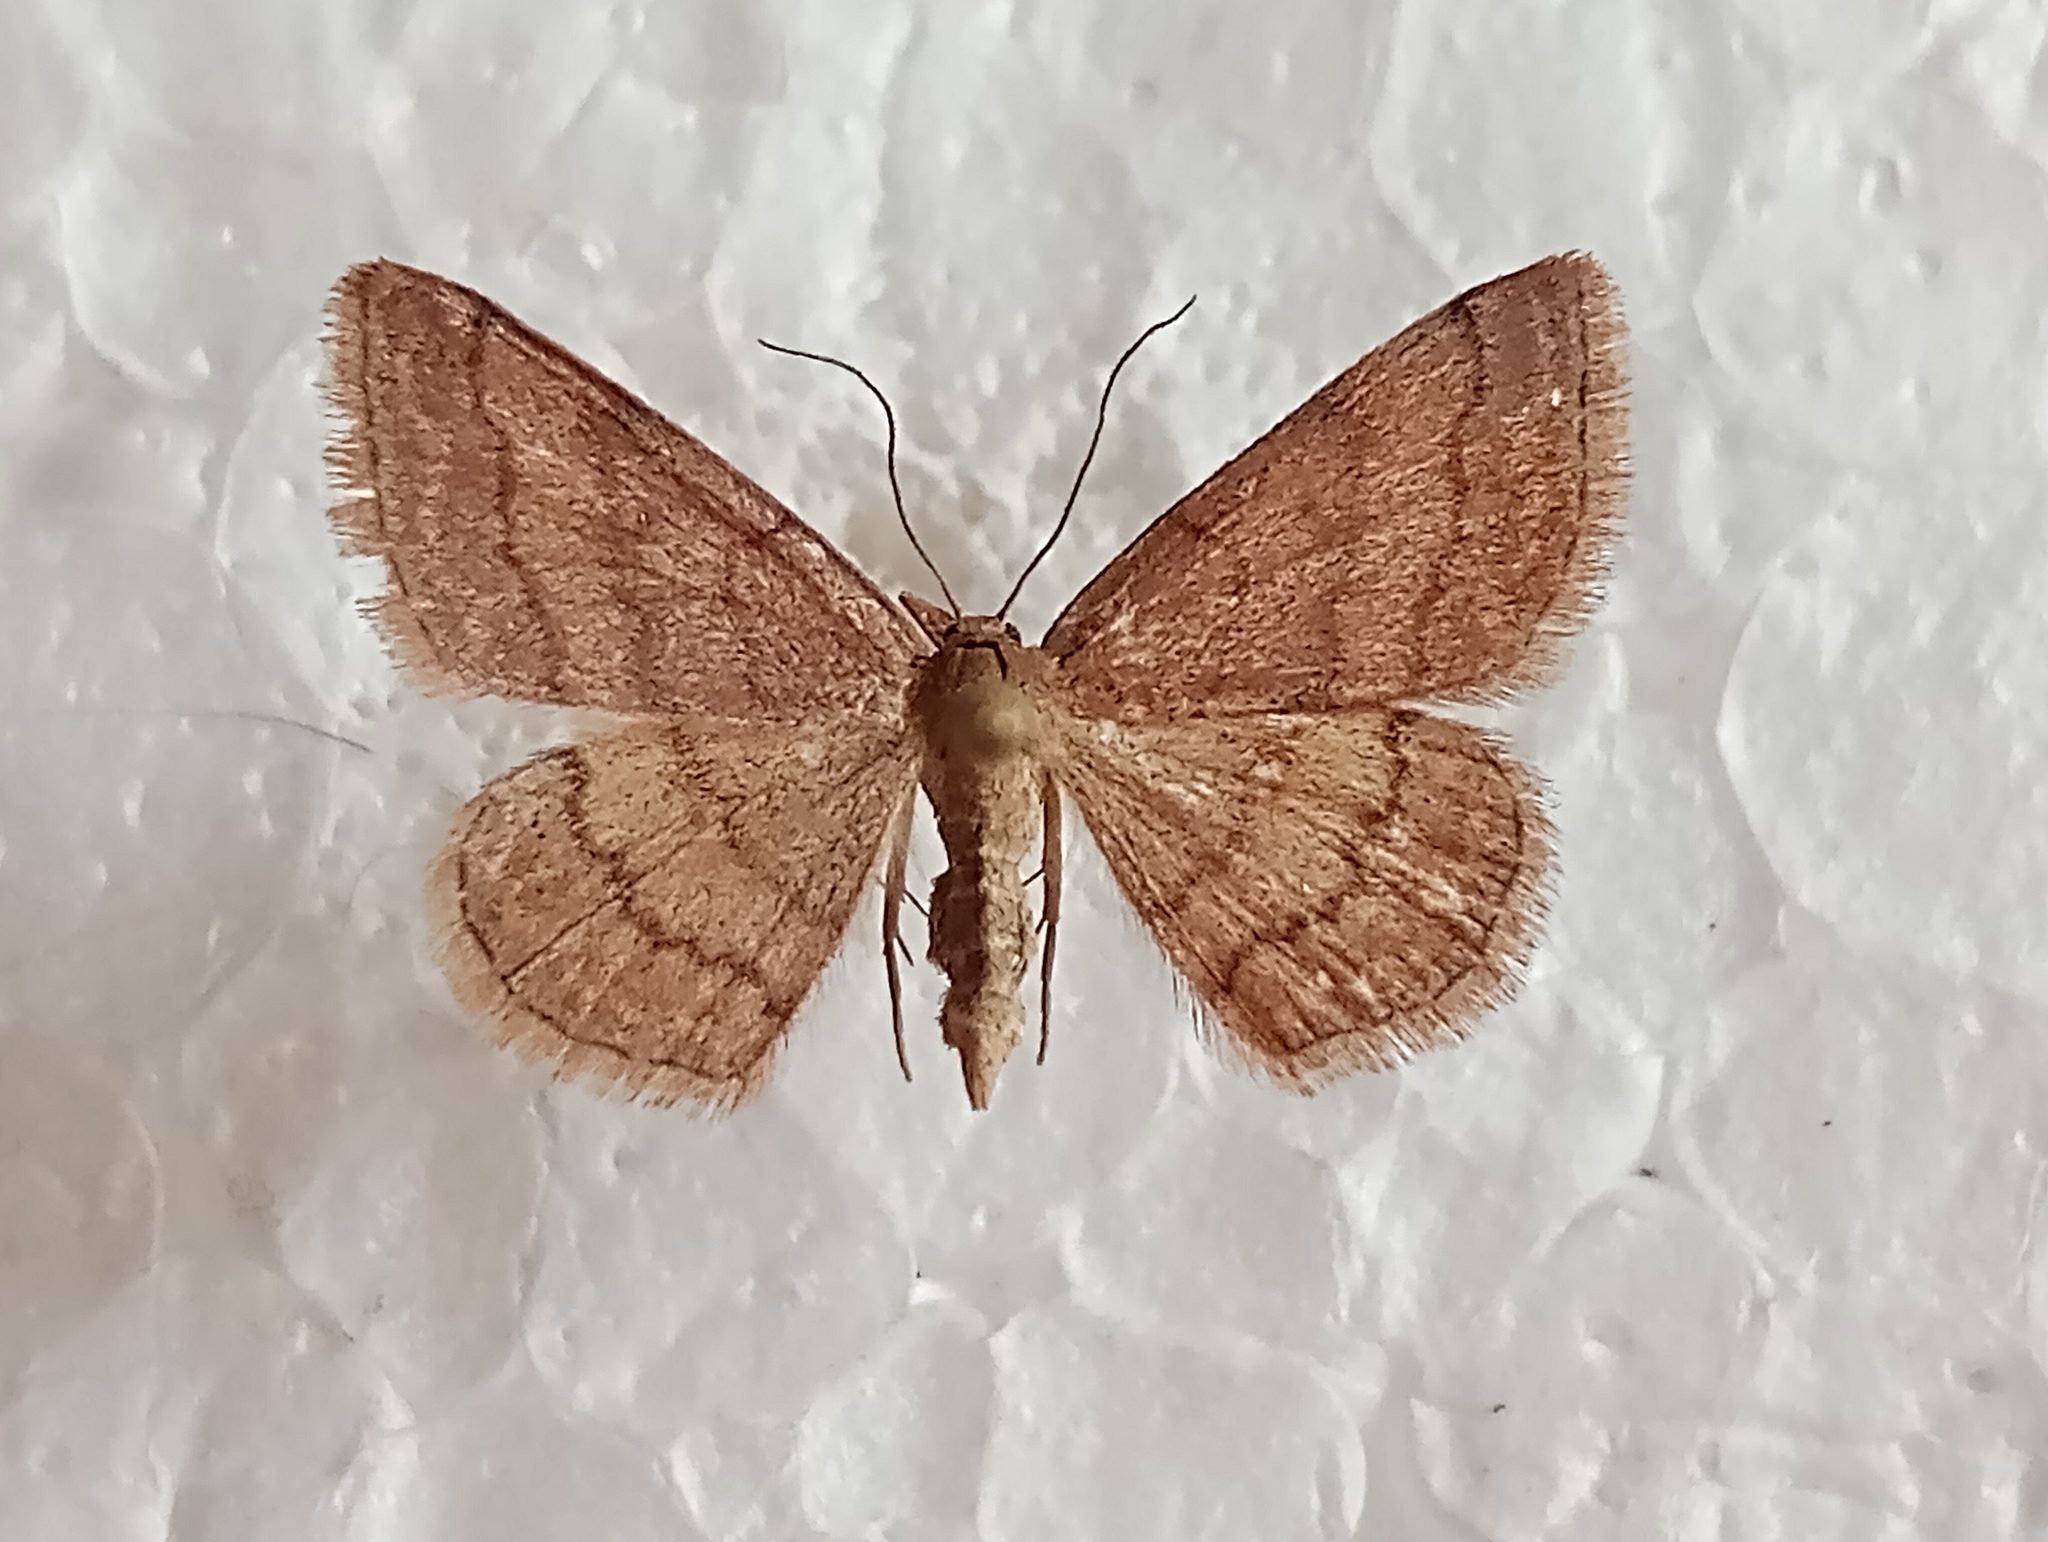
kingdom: Animalia
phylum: Arthropoda
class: Insecta
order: Lepidoptera
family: Geometridae
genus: Scopula
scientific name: Scopula rubiginata
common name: Tawny wave
